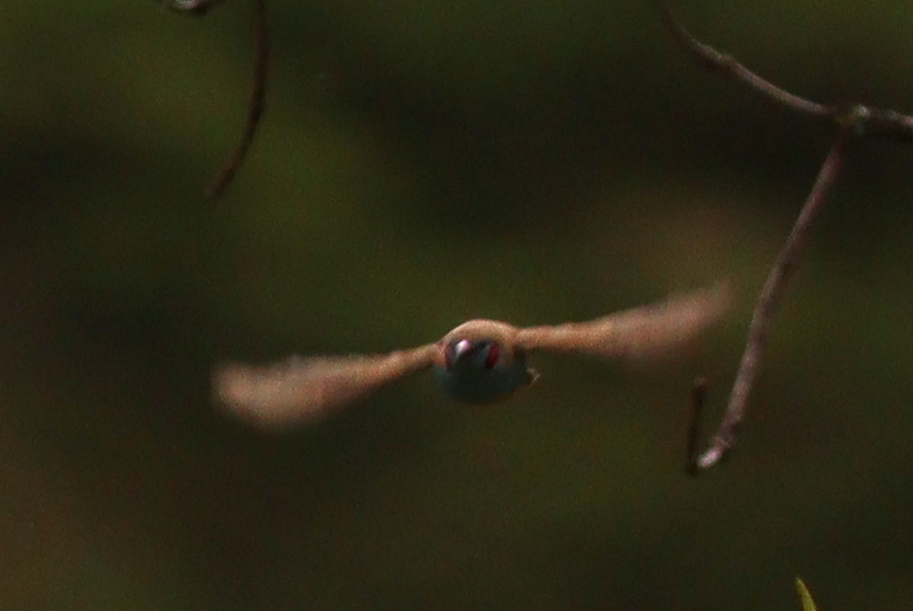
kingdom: Animalia
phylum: Chordata
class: Aves
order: Passeriformes
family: Estrildidae
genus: Uraeginthus
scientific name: Uraeginthus bengalus
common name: Red-cheeked cordon-bleu
